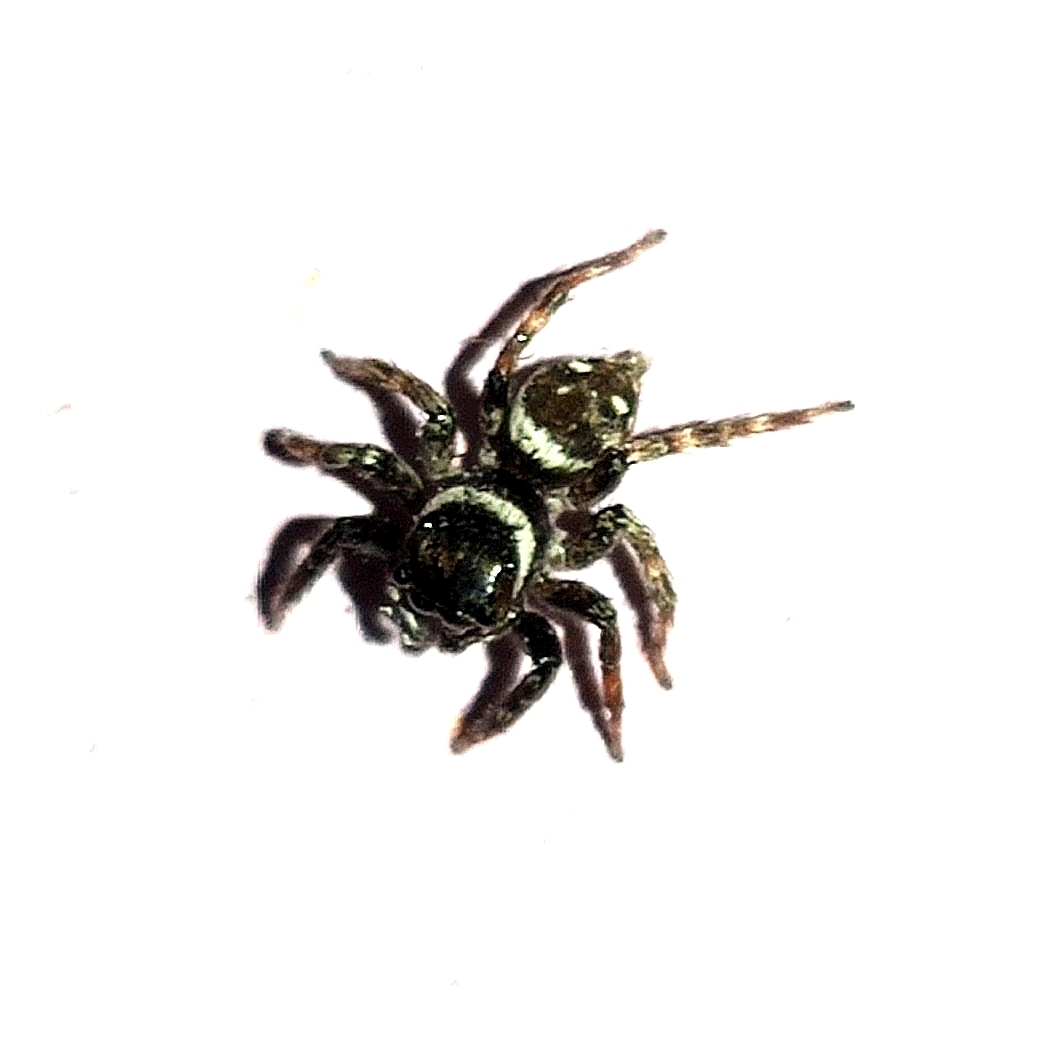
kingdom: Animalia
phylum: Arthropoda
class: Arachnida
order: Araneae
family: Salticidae
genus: Hasarius
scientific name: Hasarius adansoni
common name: Jumping spider
